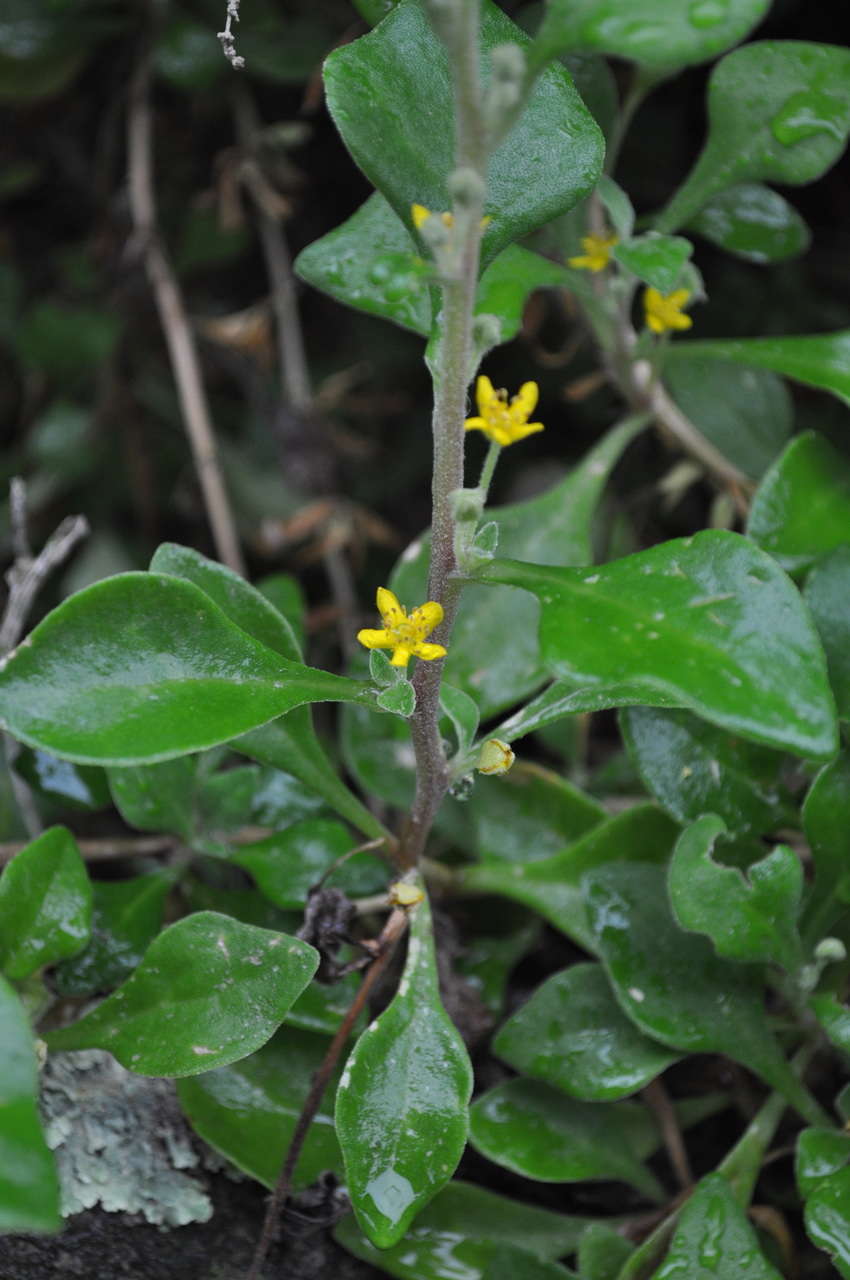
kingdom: Plantae
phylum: Tracheophyta
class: Magnoliopsida
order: Caryophyllales
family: Aizoaceae
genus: Tetragonia
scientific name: Tetragonia implexicoma
